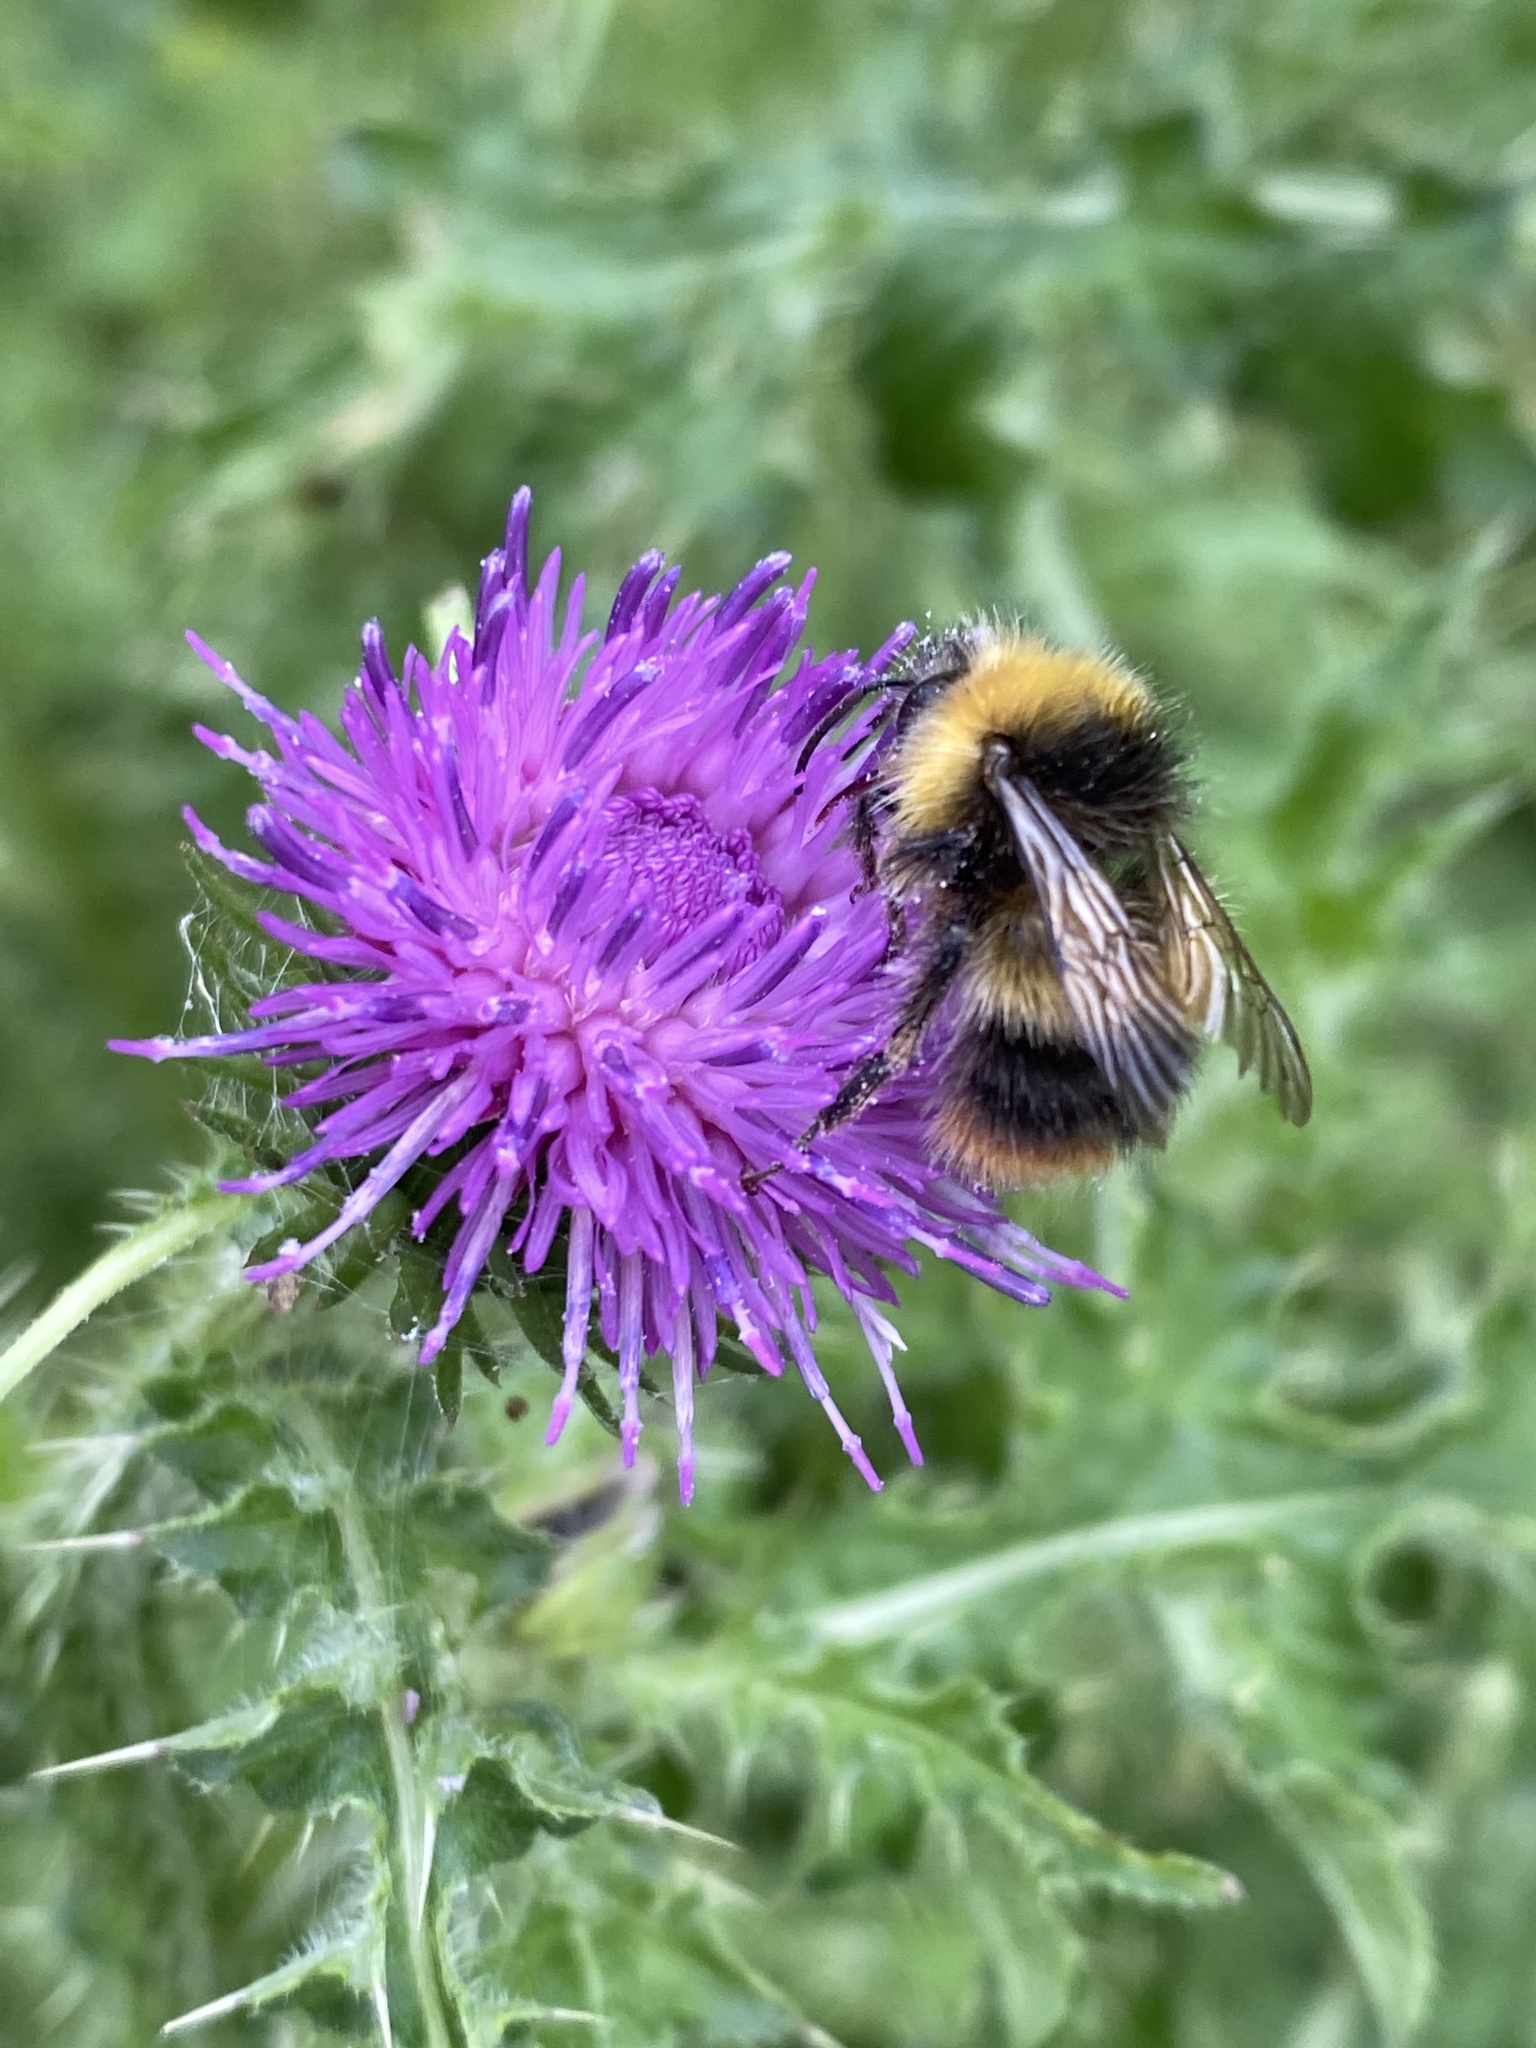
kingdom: Animalia
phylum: Arthropoda
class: Insecta
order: Hymenoptera
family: Apidae
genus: Bombus
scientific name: Bombus pratorum
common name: Early humble-bee
